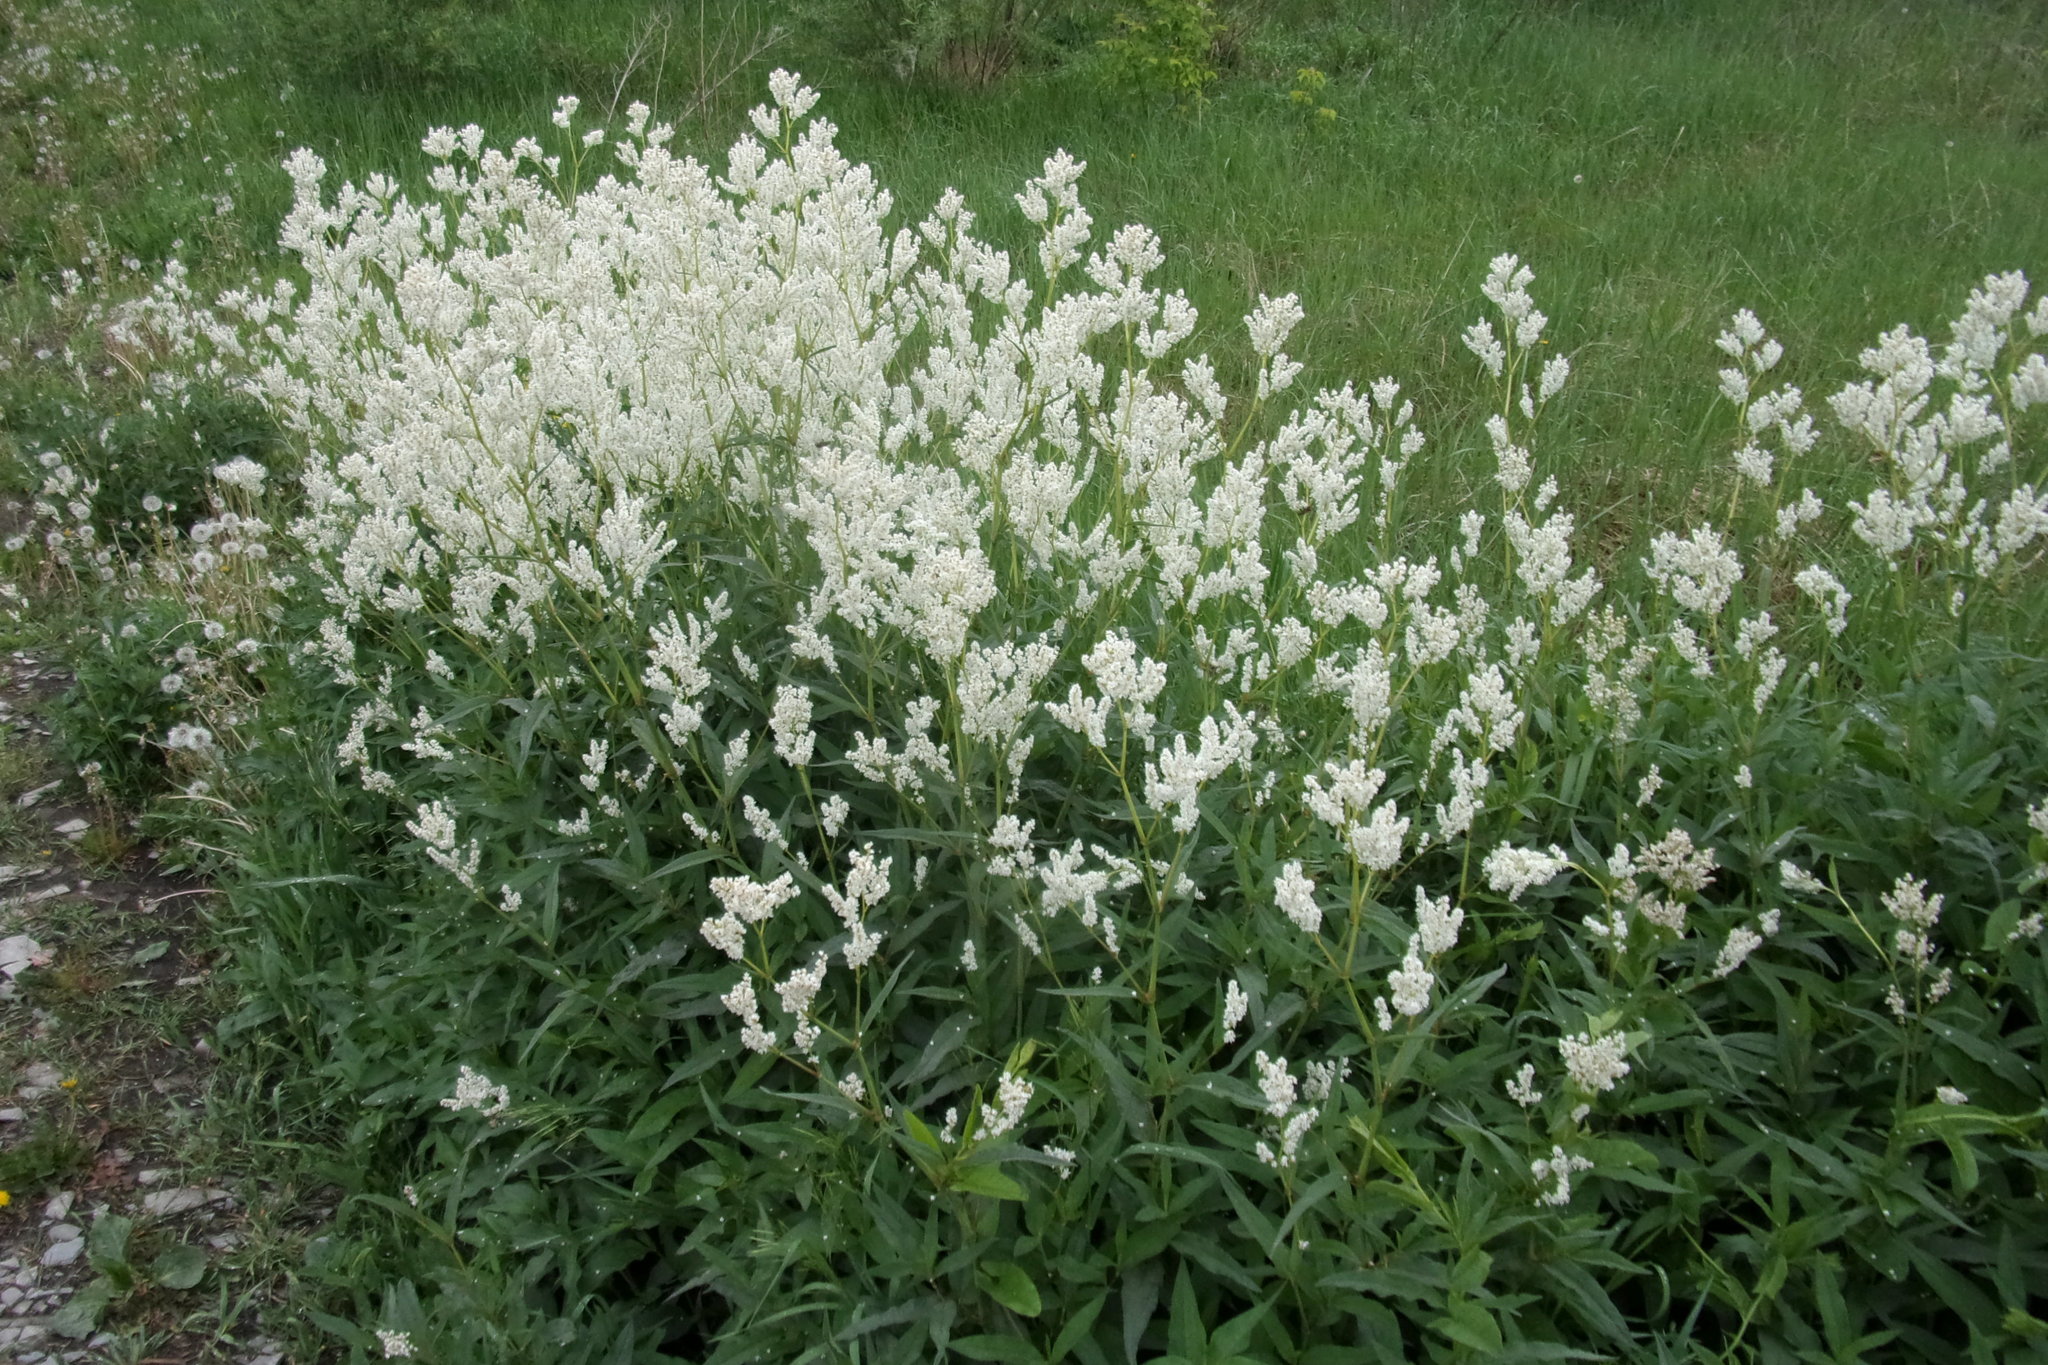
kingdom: Plantae
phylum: Tracheophyta
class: Magnoliopsida
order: Caryophyllales
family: Polygonaceae
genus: Koenigia
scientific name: Koenigia alpina
